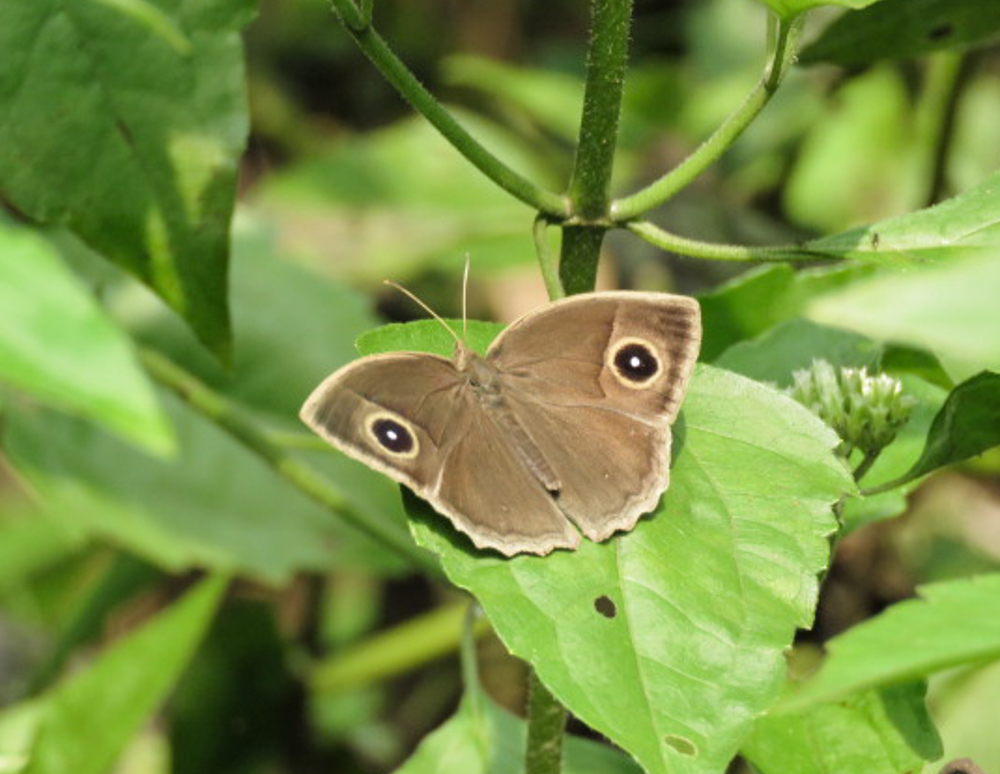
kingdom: Animalia
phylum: Arthropoda
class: Insecta
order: Lepidoptera
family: Nymphalidae
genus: Mycalesis
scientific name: Mycalesis visala
